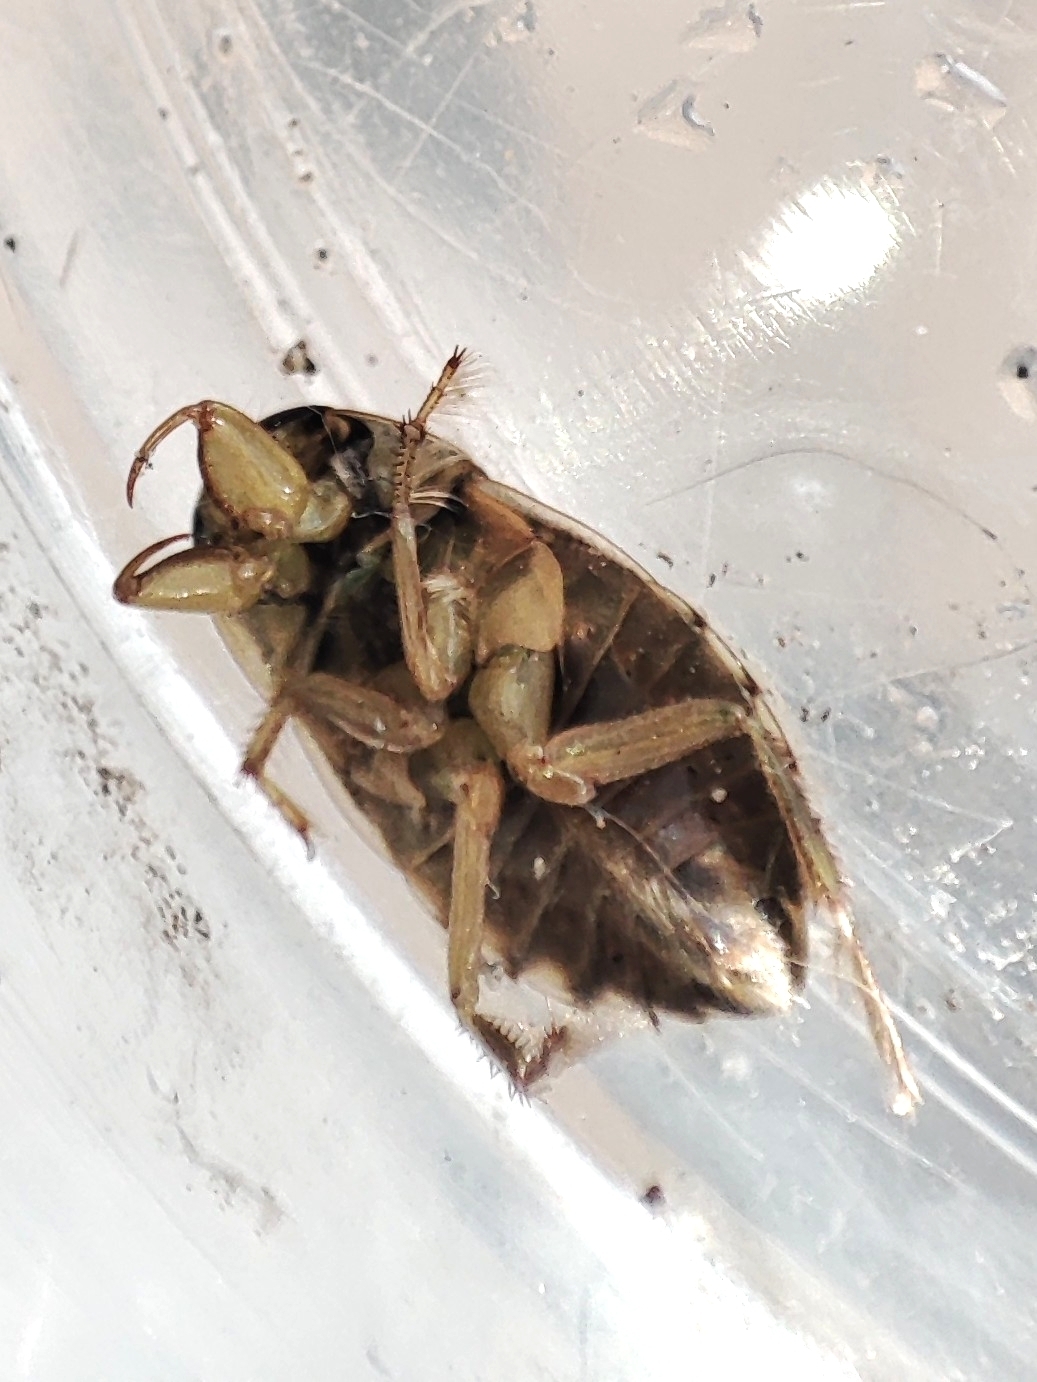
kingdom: Animalia
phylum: Arthropoda
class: Insecta
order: Hemiptera
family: Naucoridae
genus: Ilyocoris
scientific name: Ilyocoris cimicoides
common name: Saucer bugs
